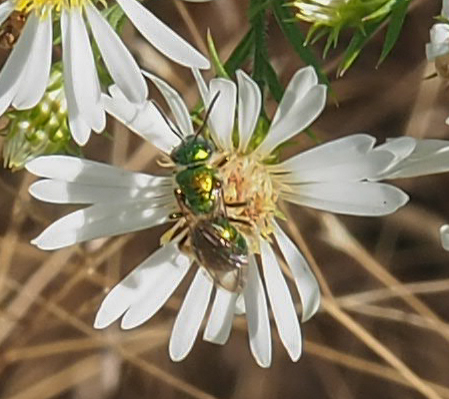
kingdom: Animalia
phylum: Arthropoda
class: Insecta
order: Hymenoptera
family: Halictidae
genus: Augochlora
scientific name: Augochlora pura
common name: Pure green sweat bee
